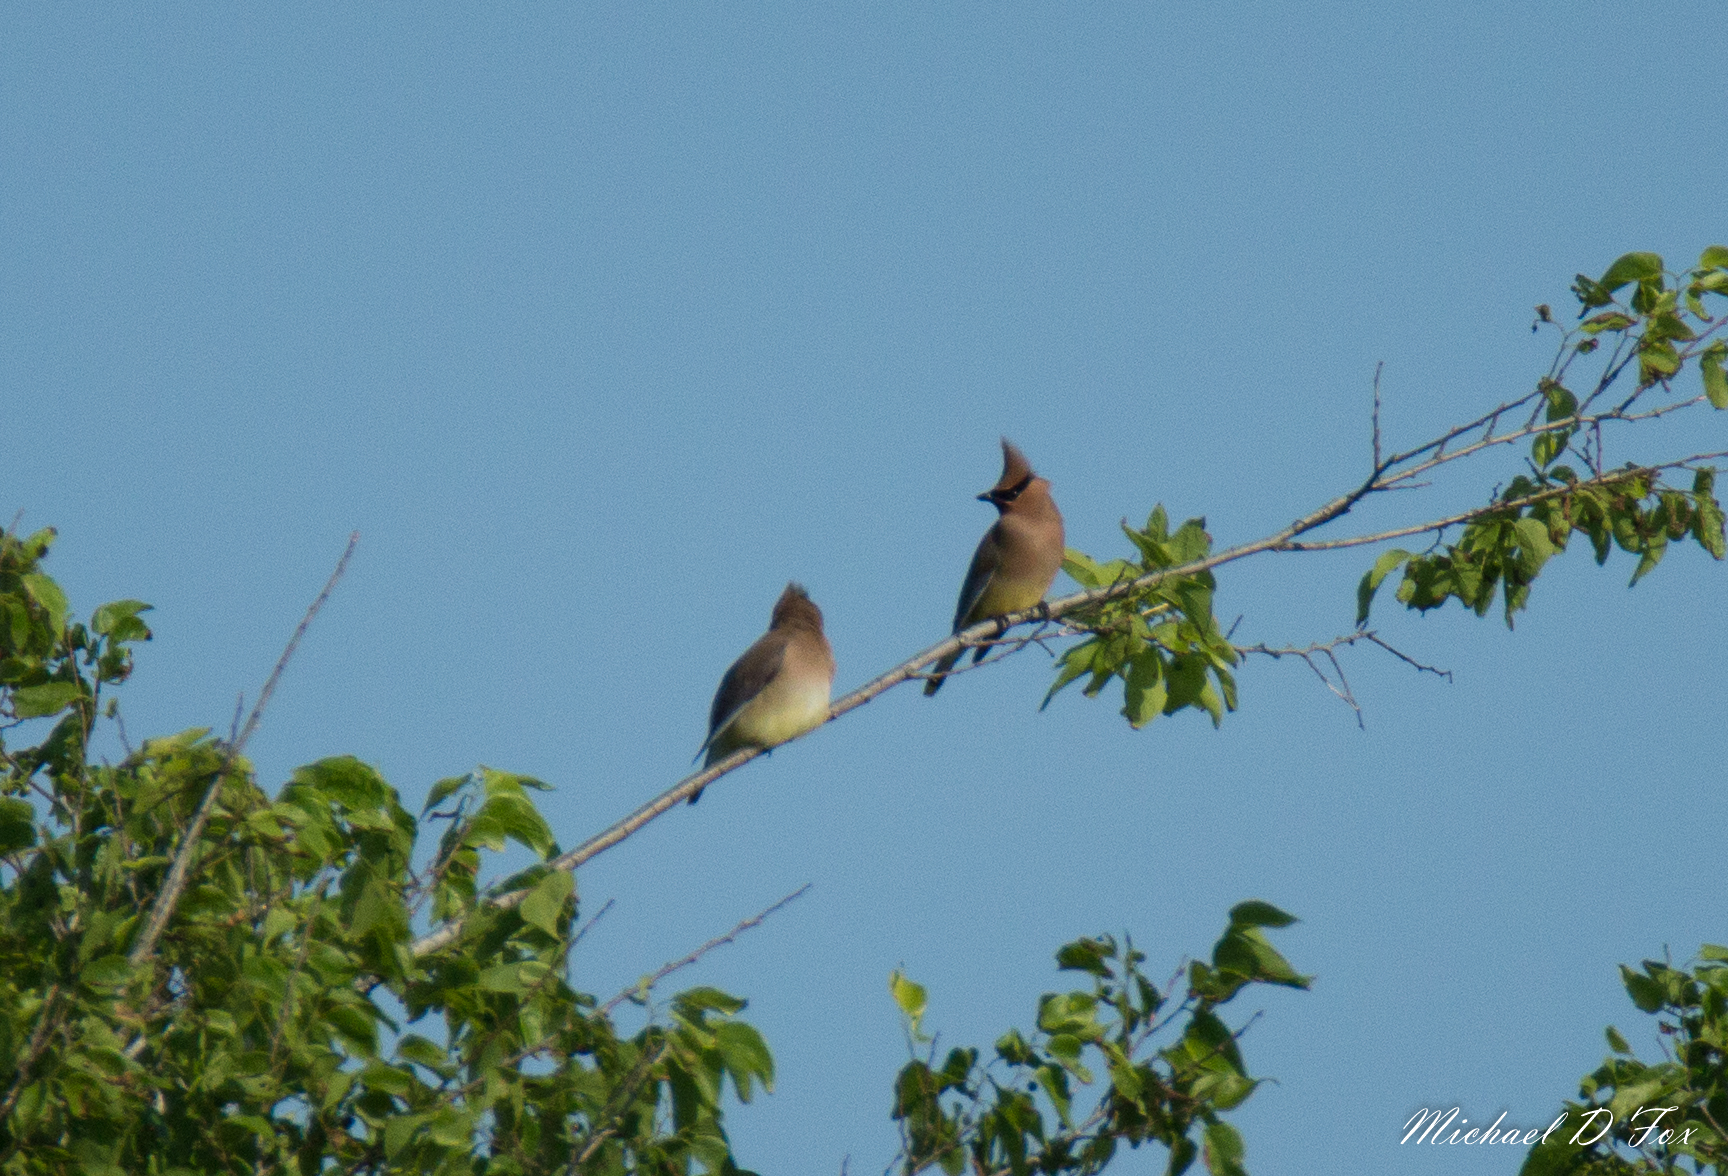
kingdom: Animalia
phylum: Chordata
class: Aves
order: Passeriformes
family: Bombycillidae
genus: Bombycilla
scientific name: Bombycilla cedrorum
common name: Cedar waxwing
